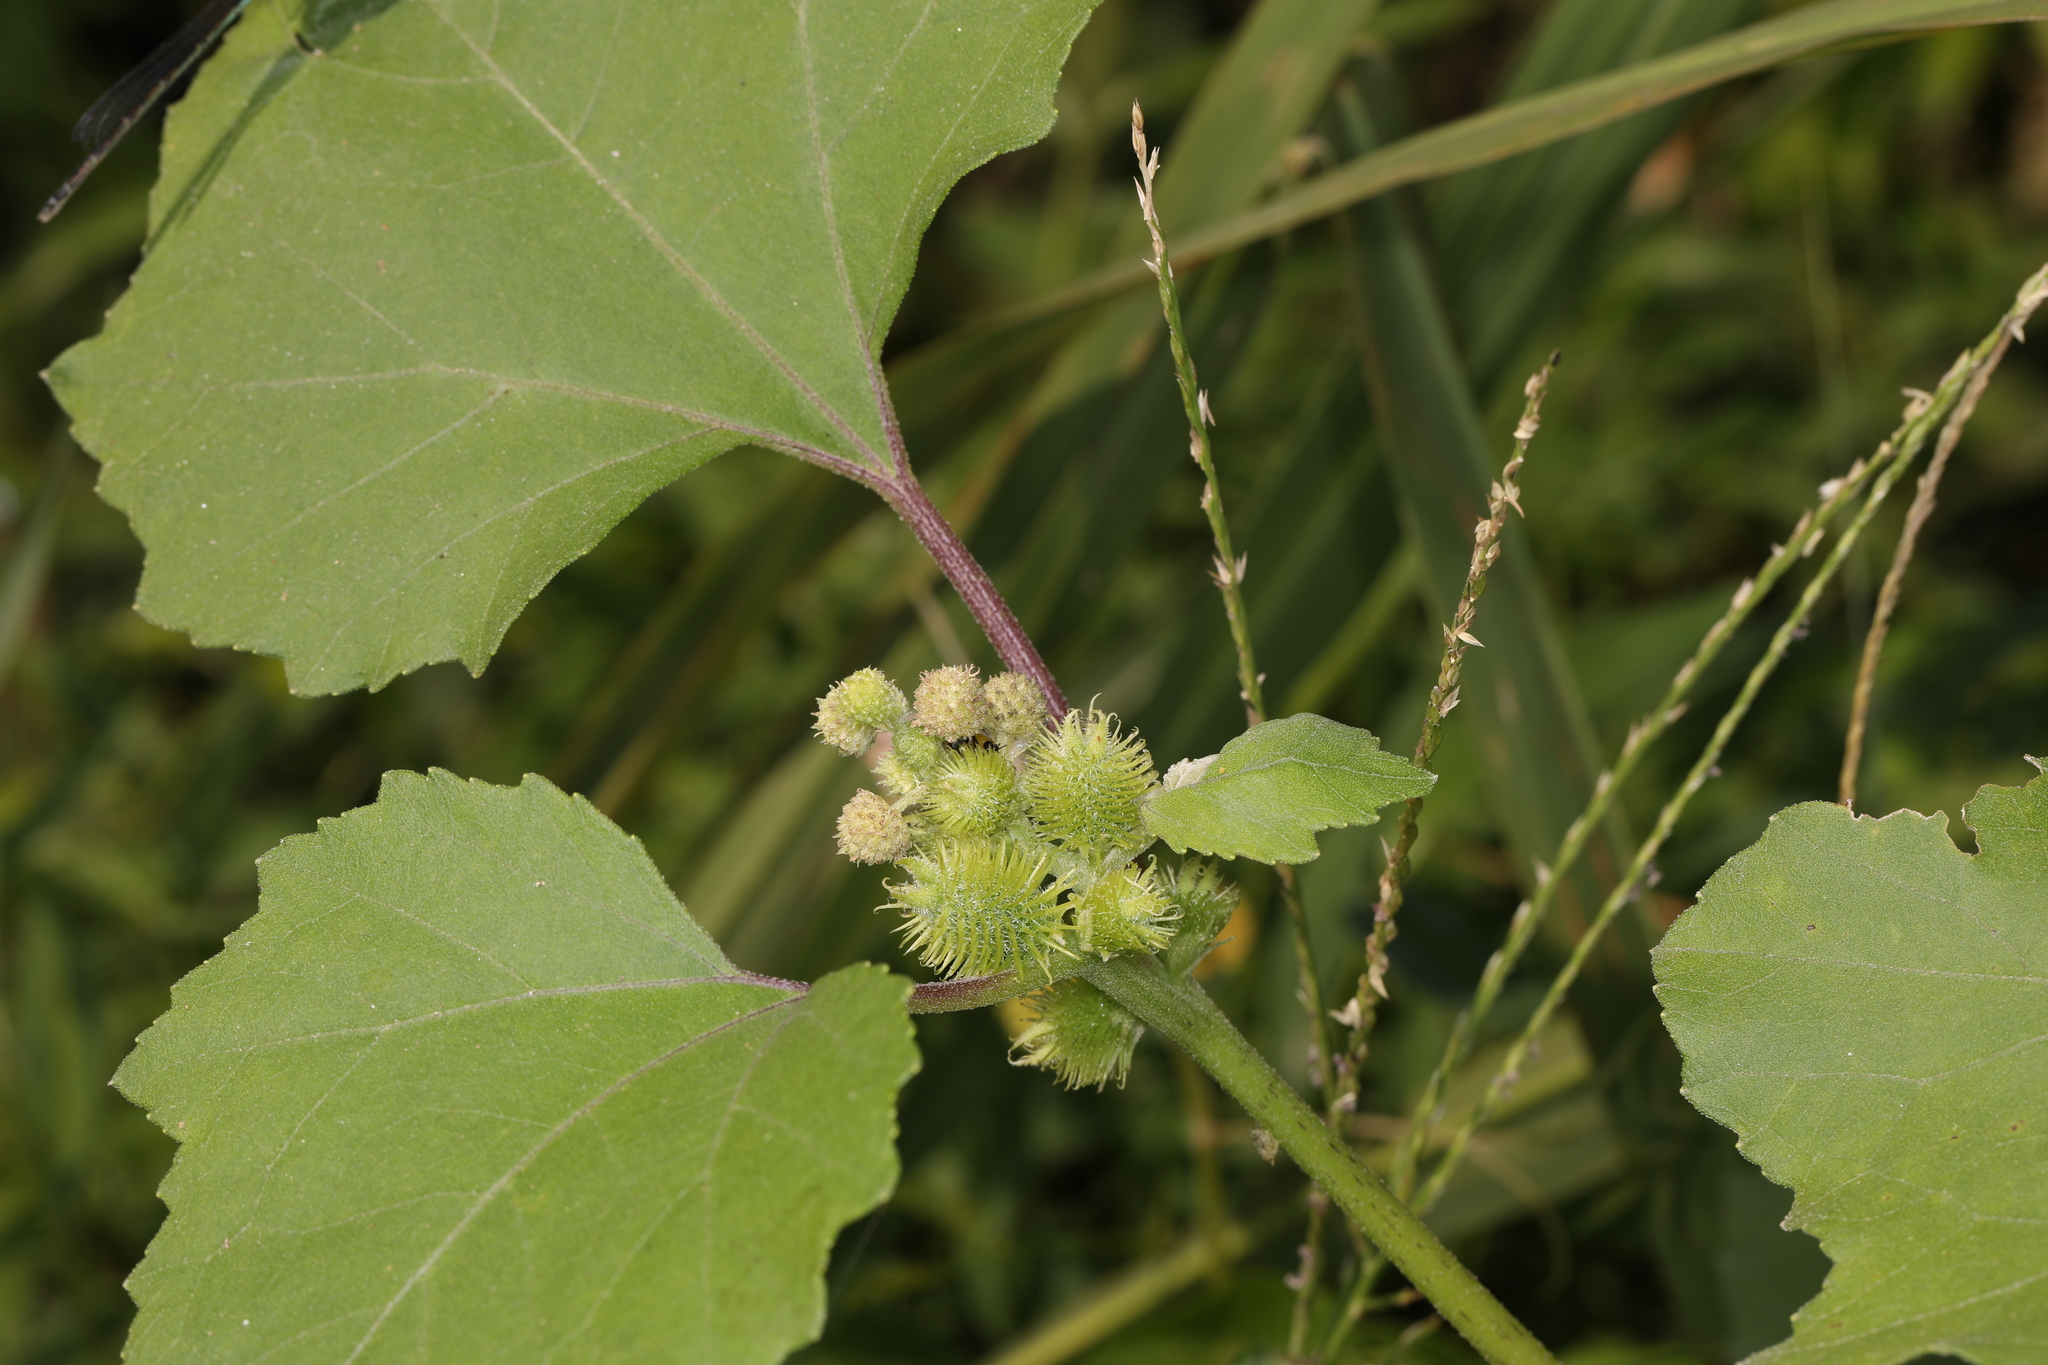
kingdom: Plantae
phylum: Tracheophyta
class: Magnoliopsida
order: Asterales
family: Asteraceae
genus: Xanthium
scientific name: Xanthium strumarium
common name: Rough cocklebur
